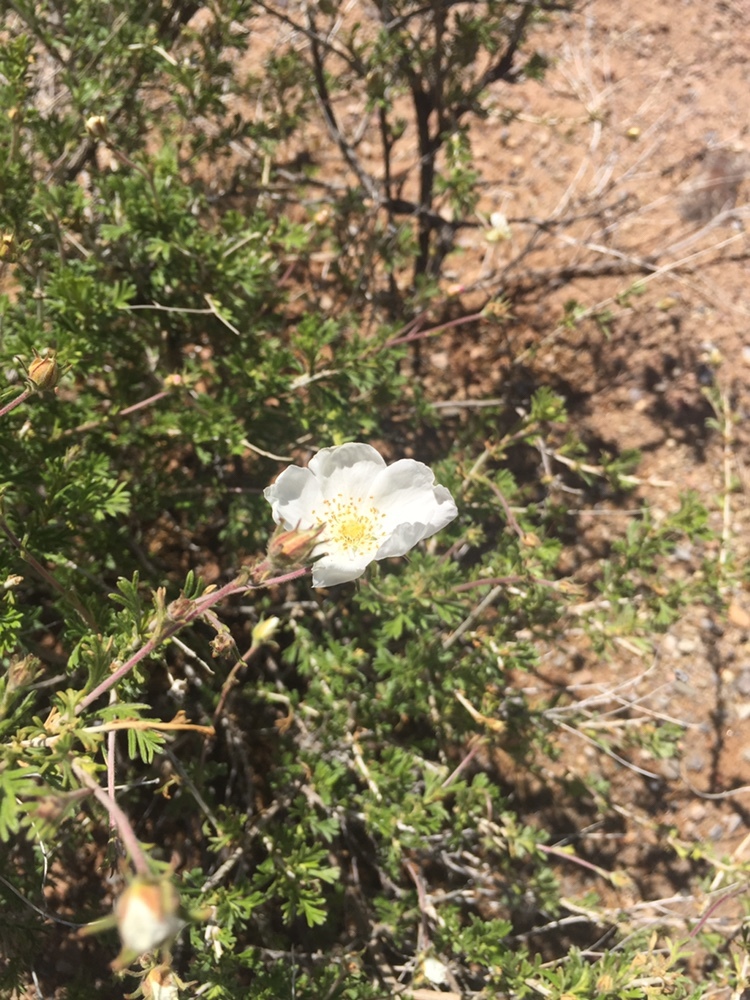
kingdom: Plantae
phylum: Tracheophyta
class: Magnoliopsida
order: Rosales
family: Rosaceae
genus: Fallugia
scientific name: Fallugia paradoxa
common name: Apache-plume
